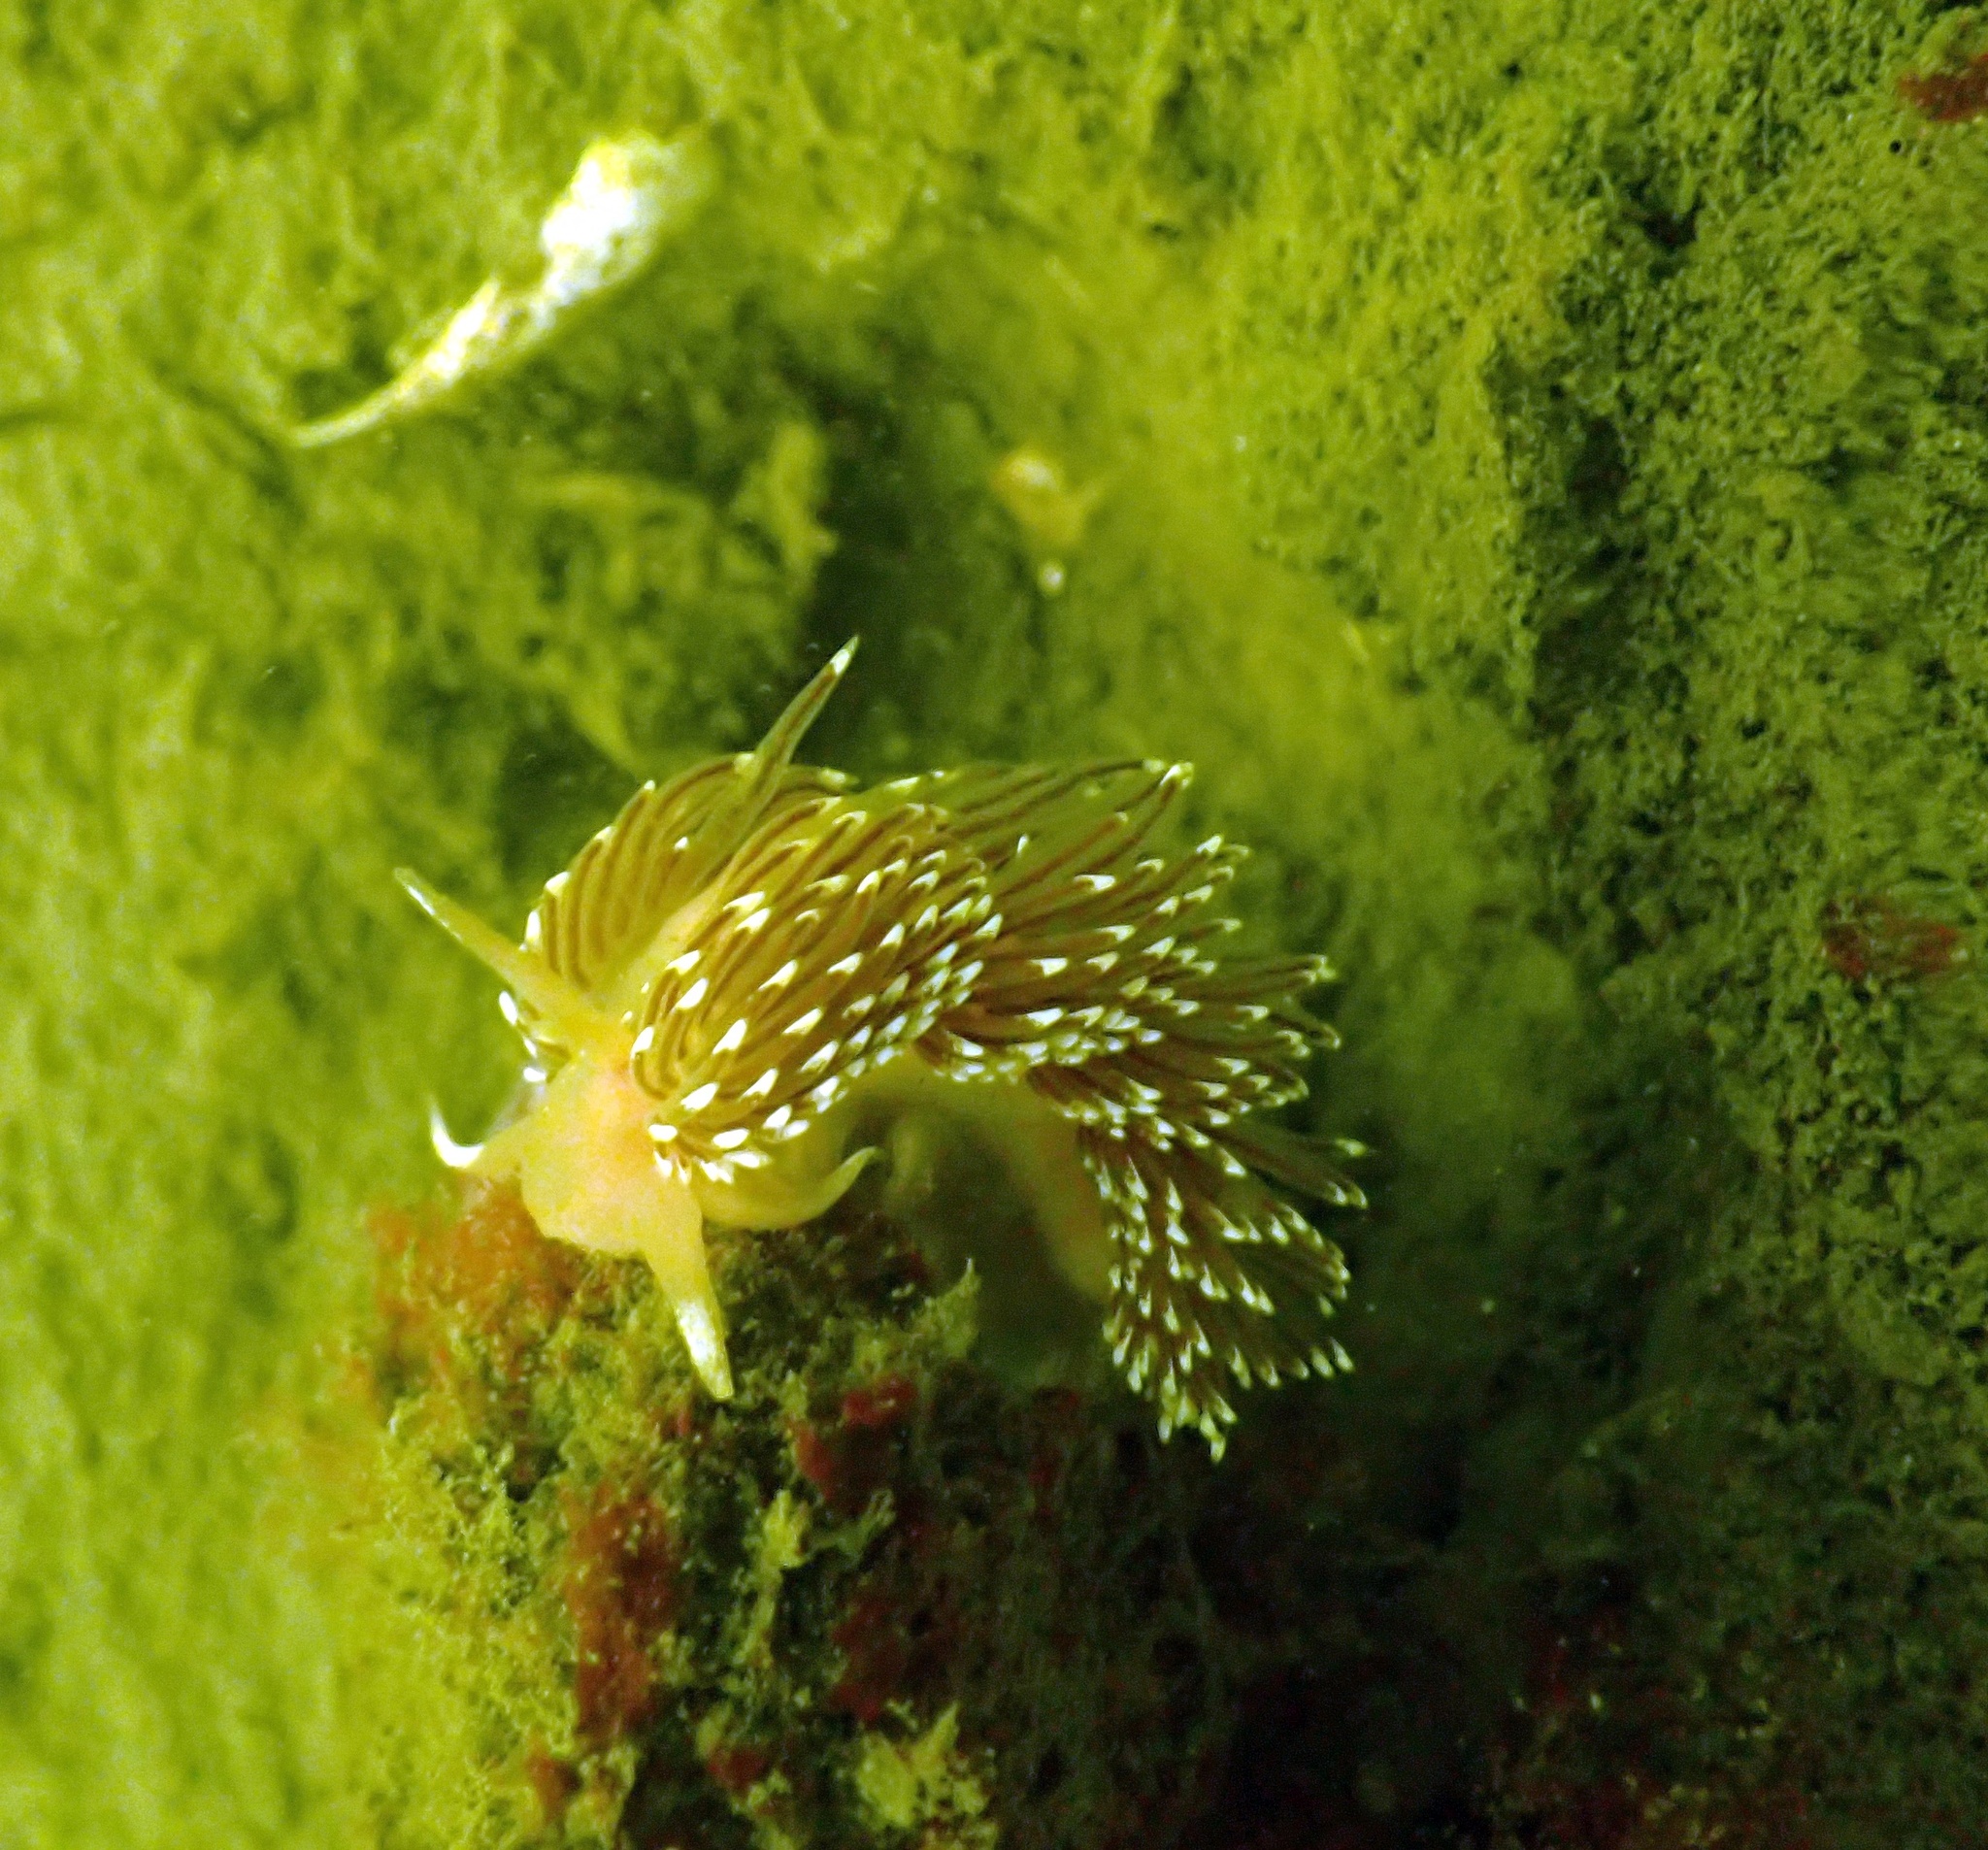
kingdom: Animalia
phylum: Mollusca
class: Gastropoda
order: Nudibranchia
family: Facelinidae
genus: Facelina
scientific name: Facelina bostoniensis
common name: Boston facelina
